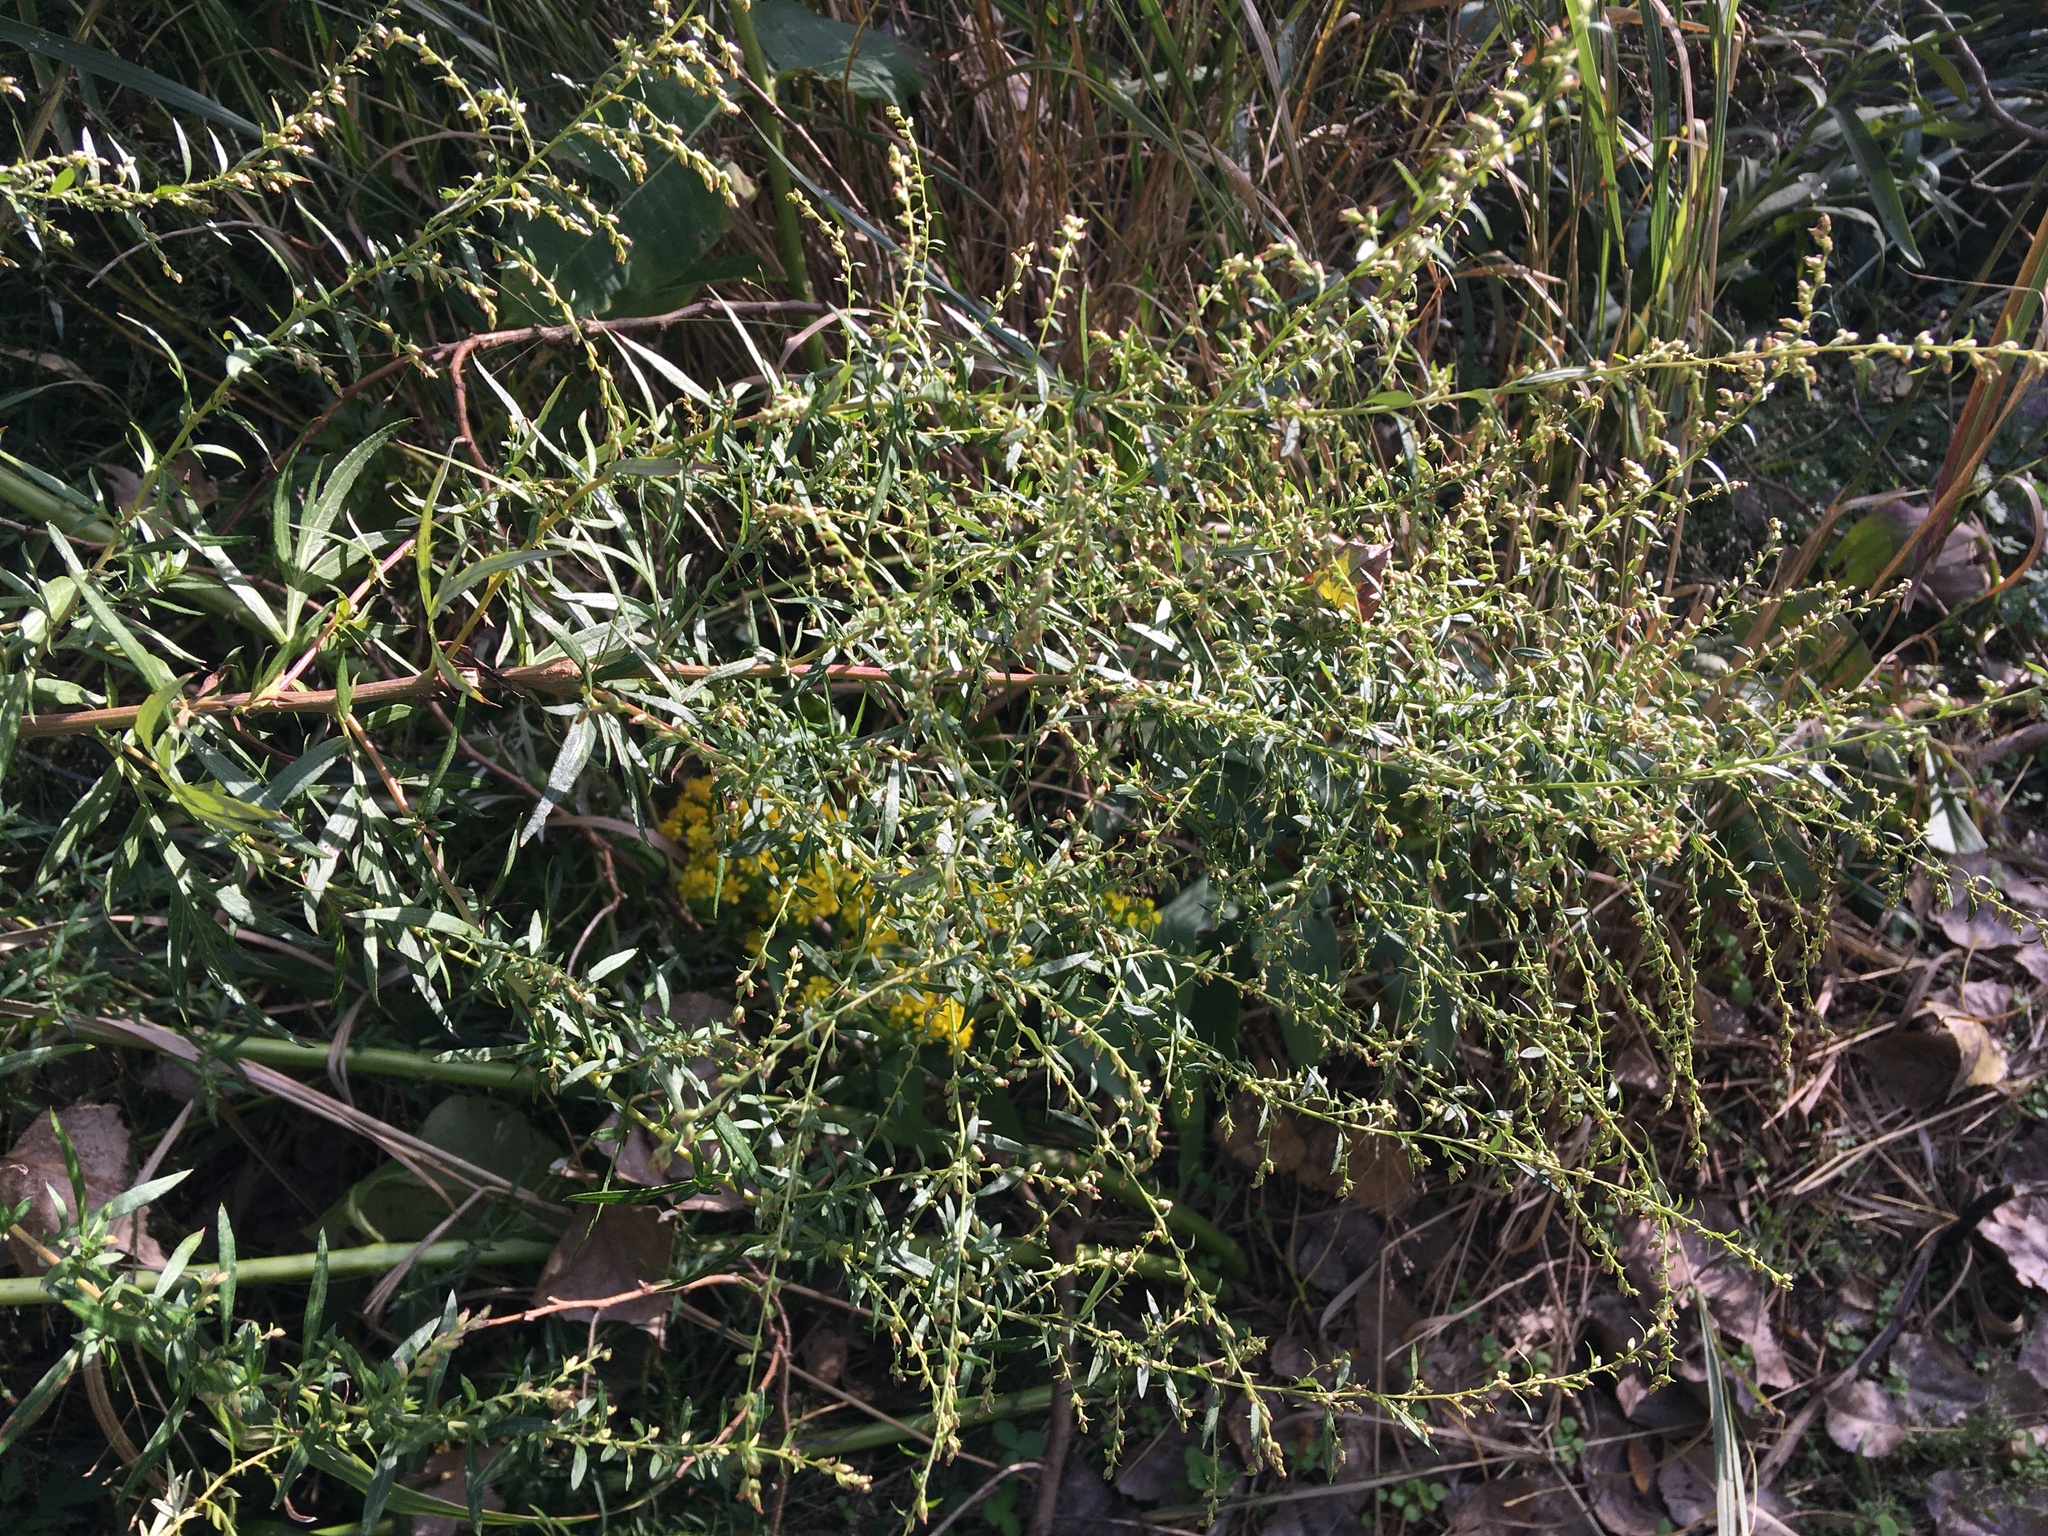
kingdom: Plantae
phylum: Tracheophyta
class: Magnoliopsida
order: Asterales
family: Asteraceae
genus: Artemisia
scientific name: Artemisia vulgaris
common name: Mugwort
